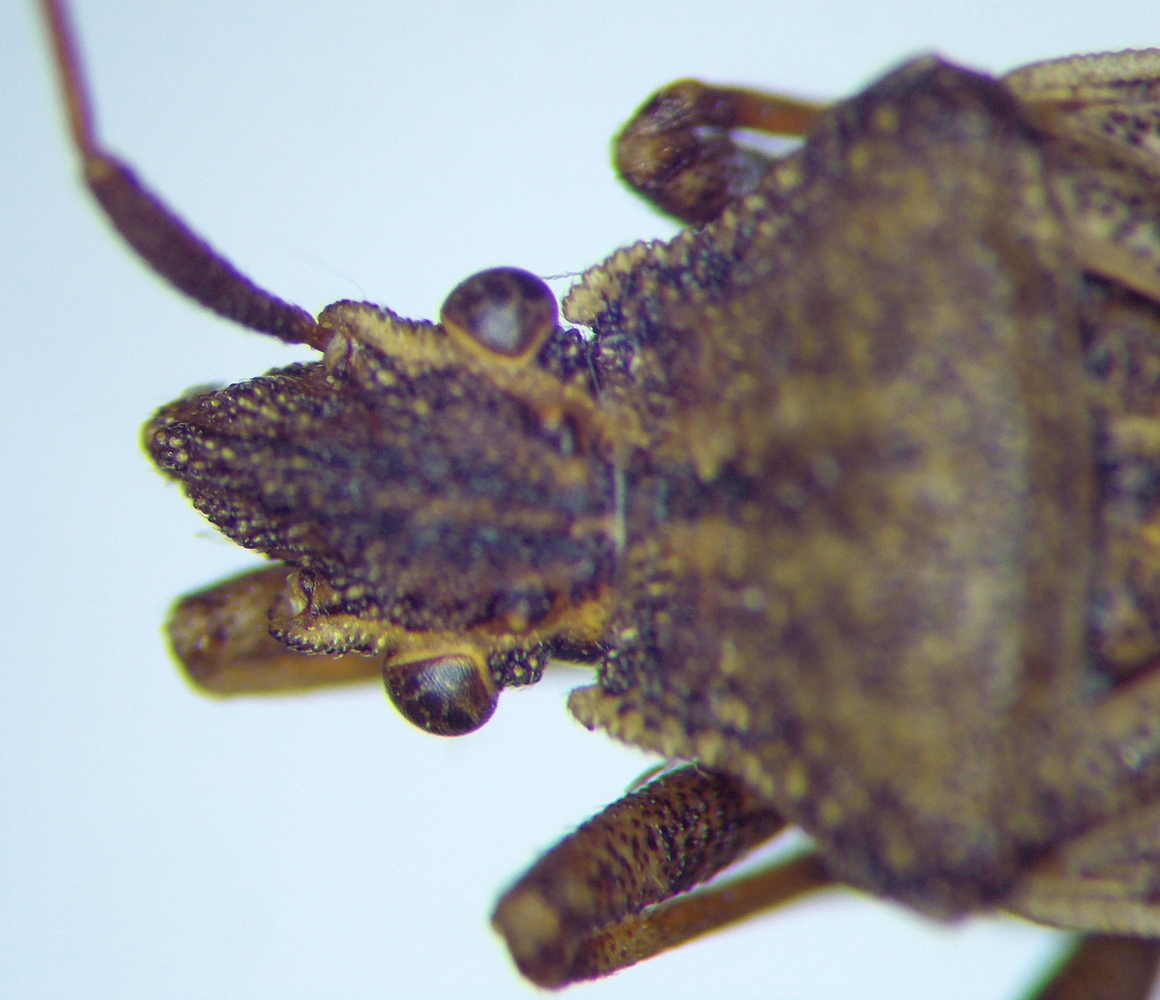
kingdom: Animalia
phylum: Arthropoda
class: Insecta
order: Hemiptera
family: Coreidae
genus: Ceraleptus
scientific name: Ceraleptus gracilicornis
